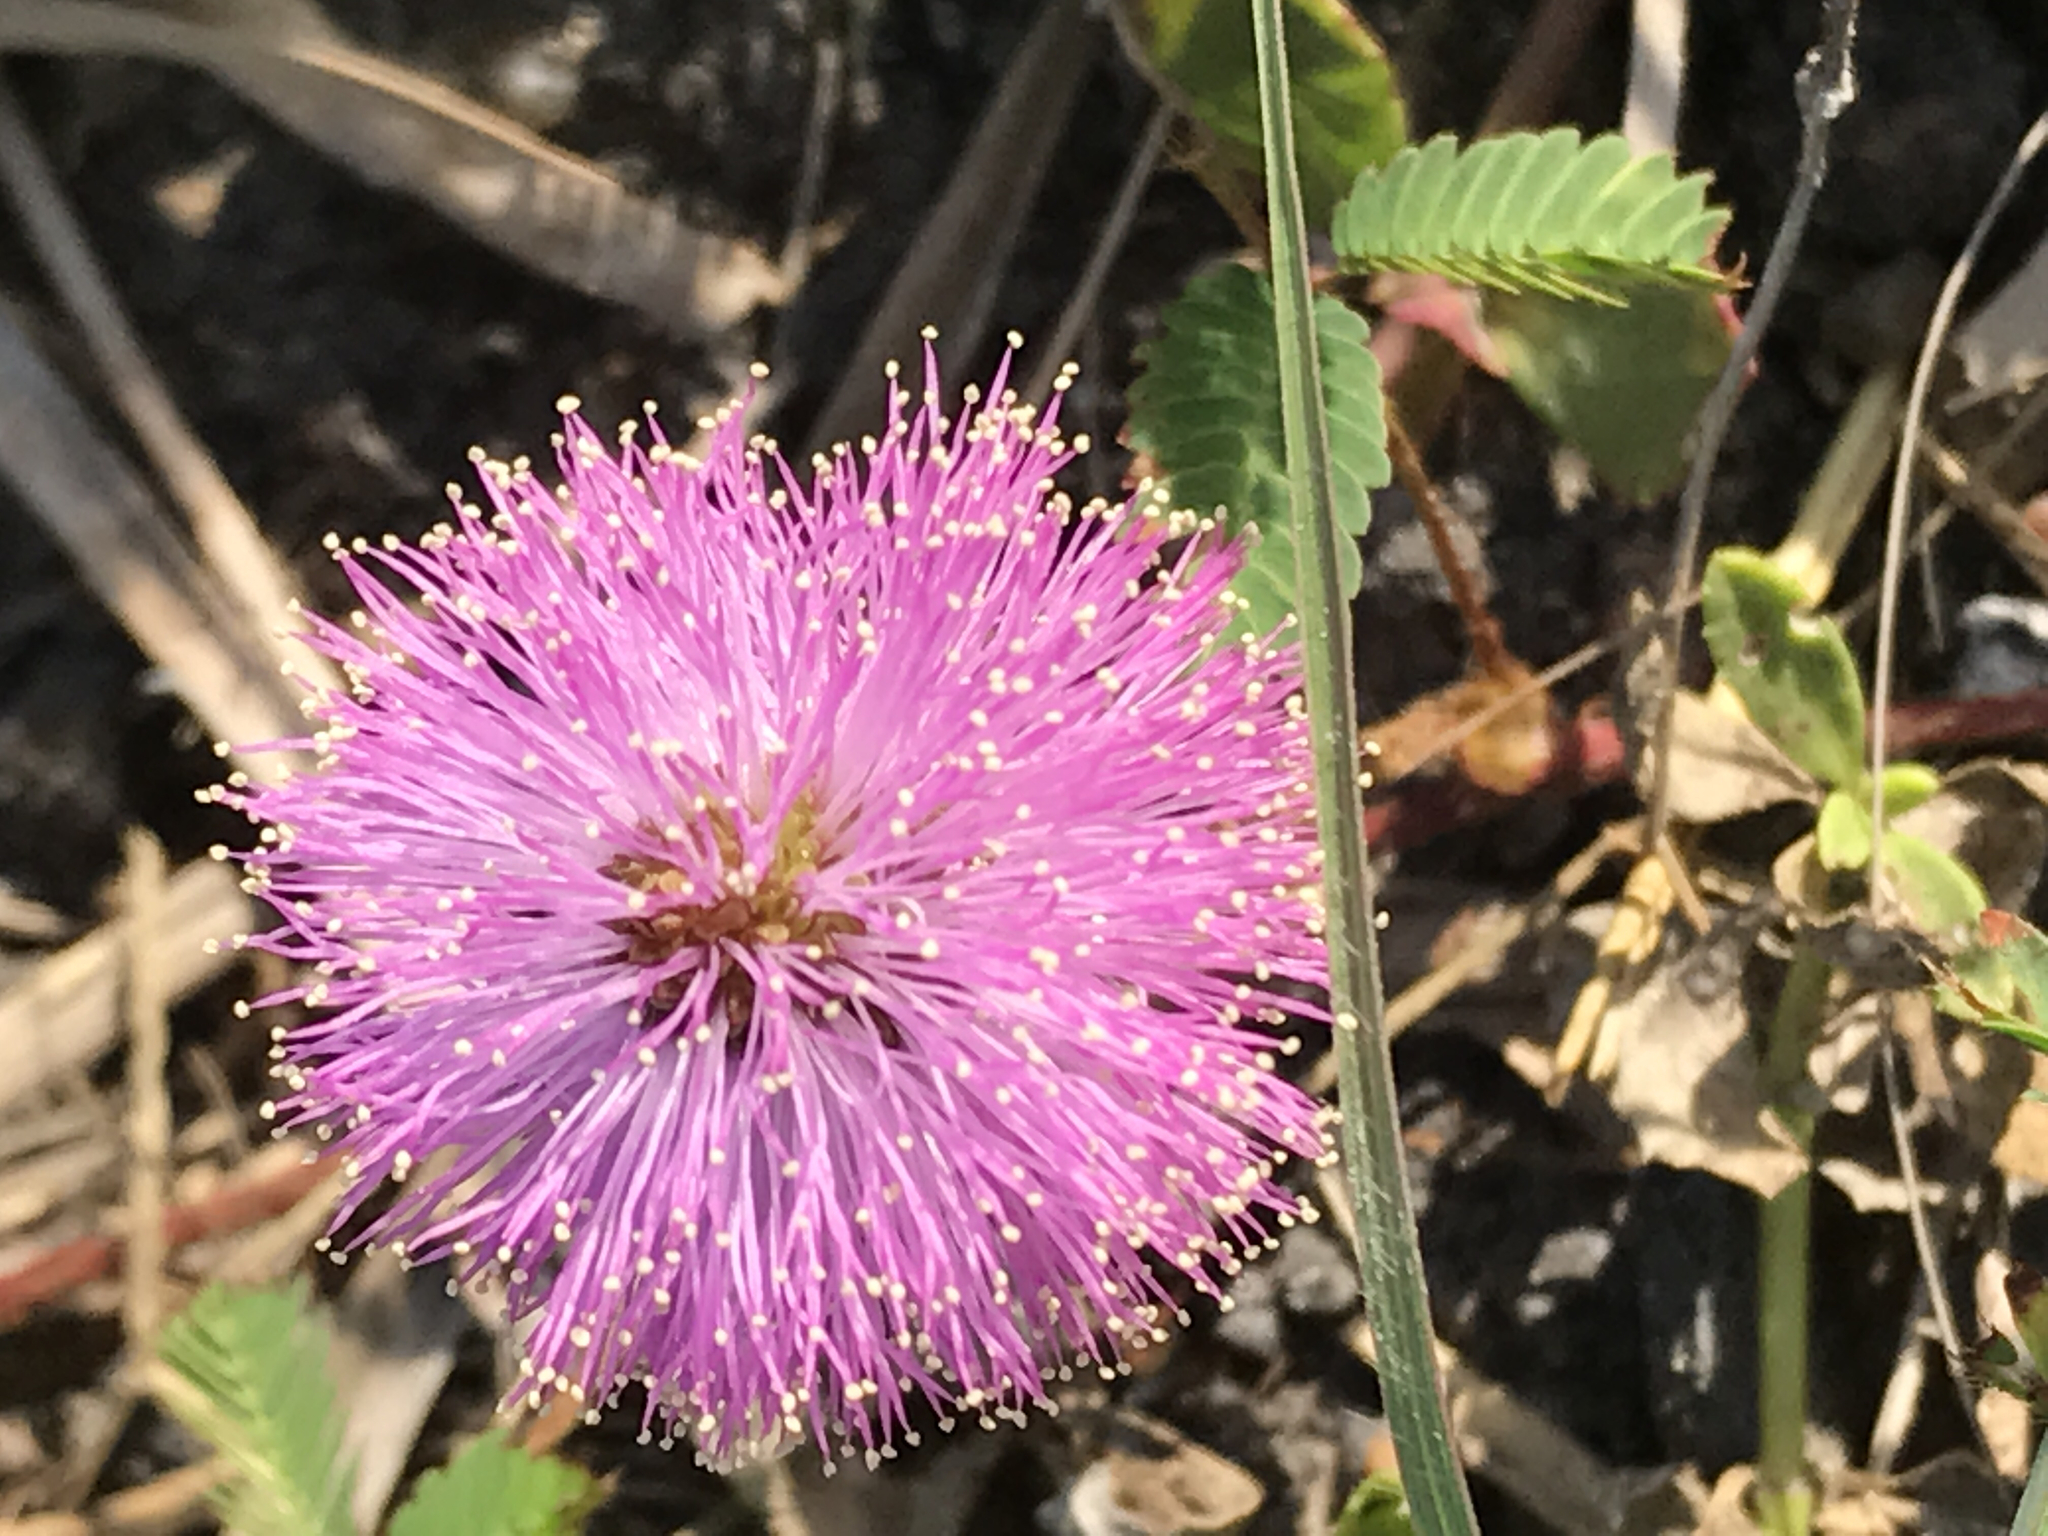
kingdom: Plantae
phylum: Tracheophyta
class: Magnoliopsida
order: Fabales
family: Fabaceae
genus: Mimosa
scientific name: Mimosa strigillosa
